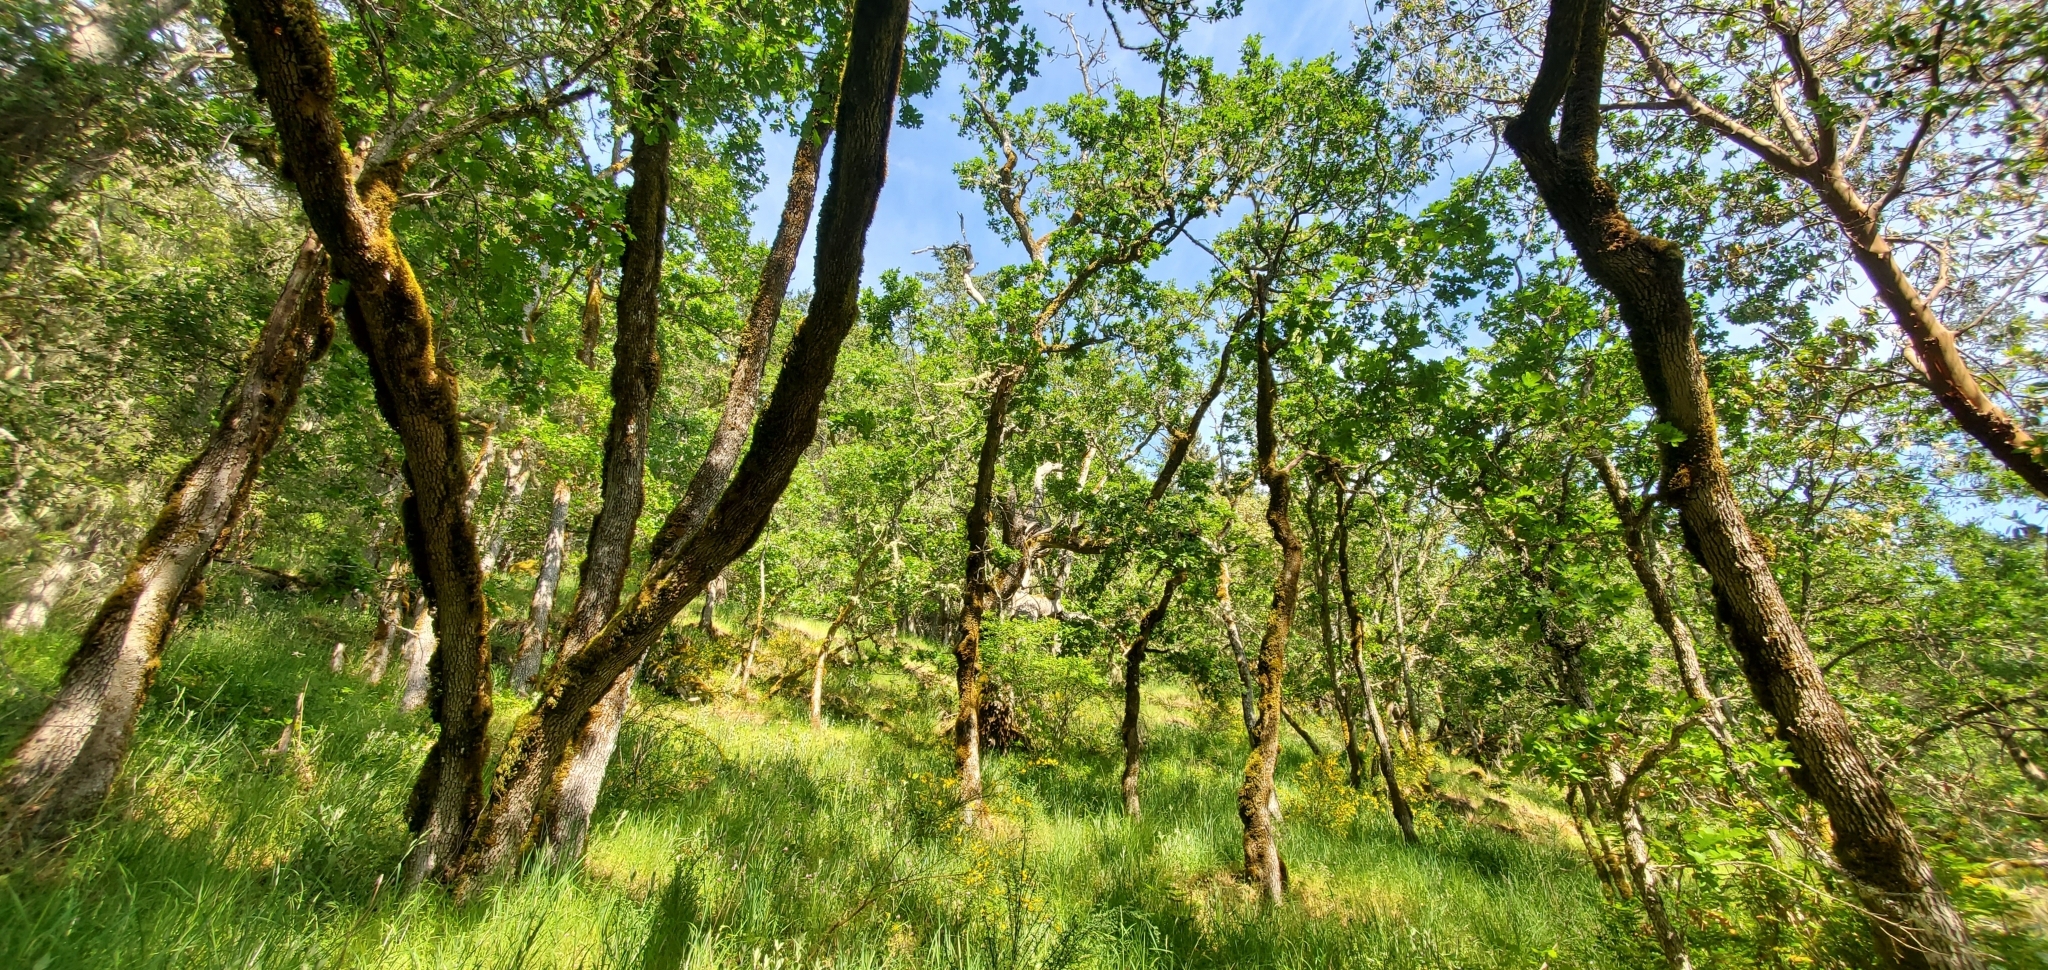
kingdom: Plantae
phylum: Tracheophyta
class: Magnoliopsida
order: Fagales
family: Fagaceae
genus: Quercus
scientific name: Quercus garryana
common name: Garry oak
